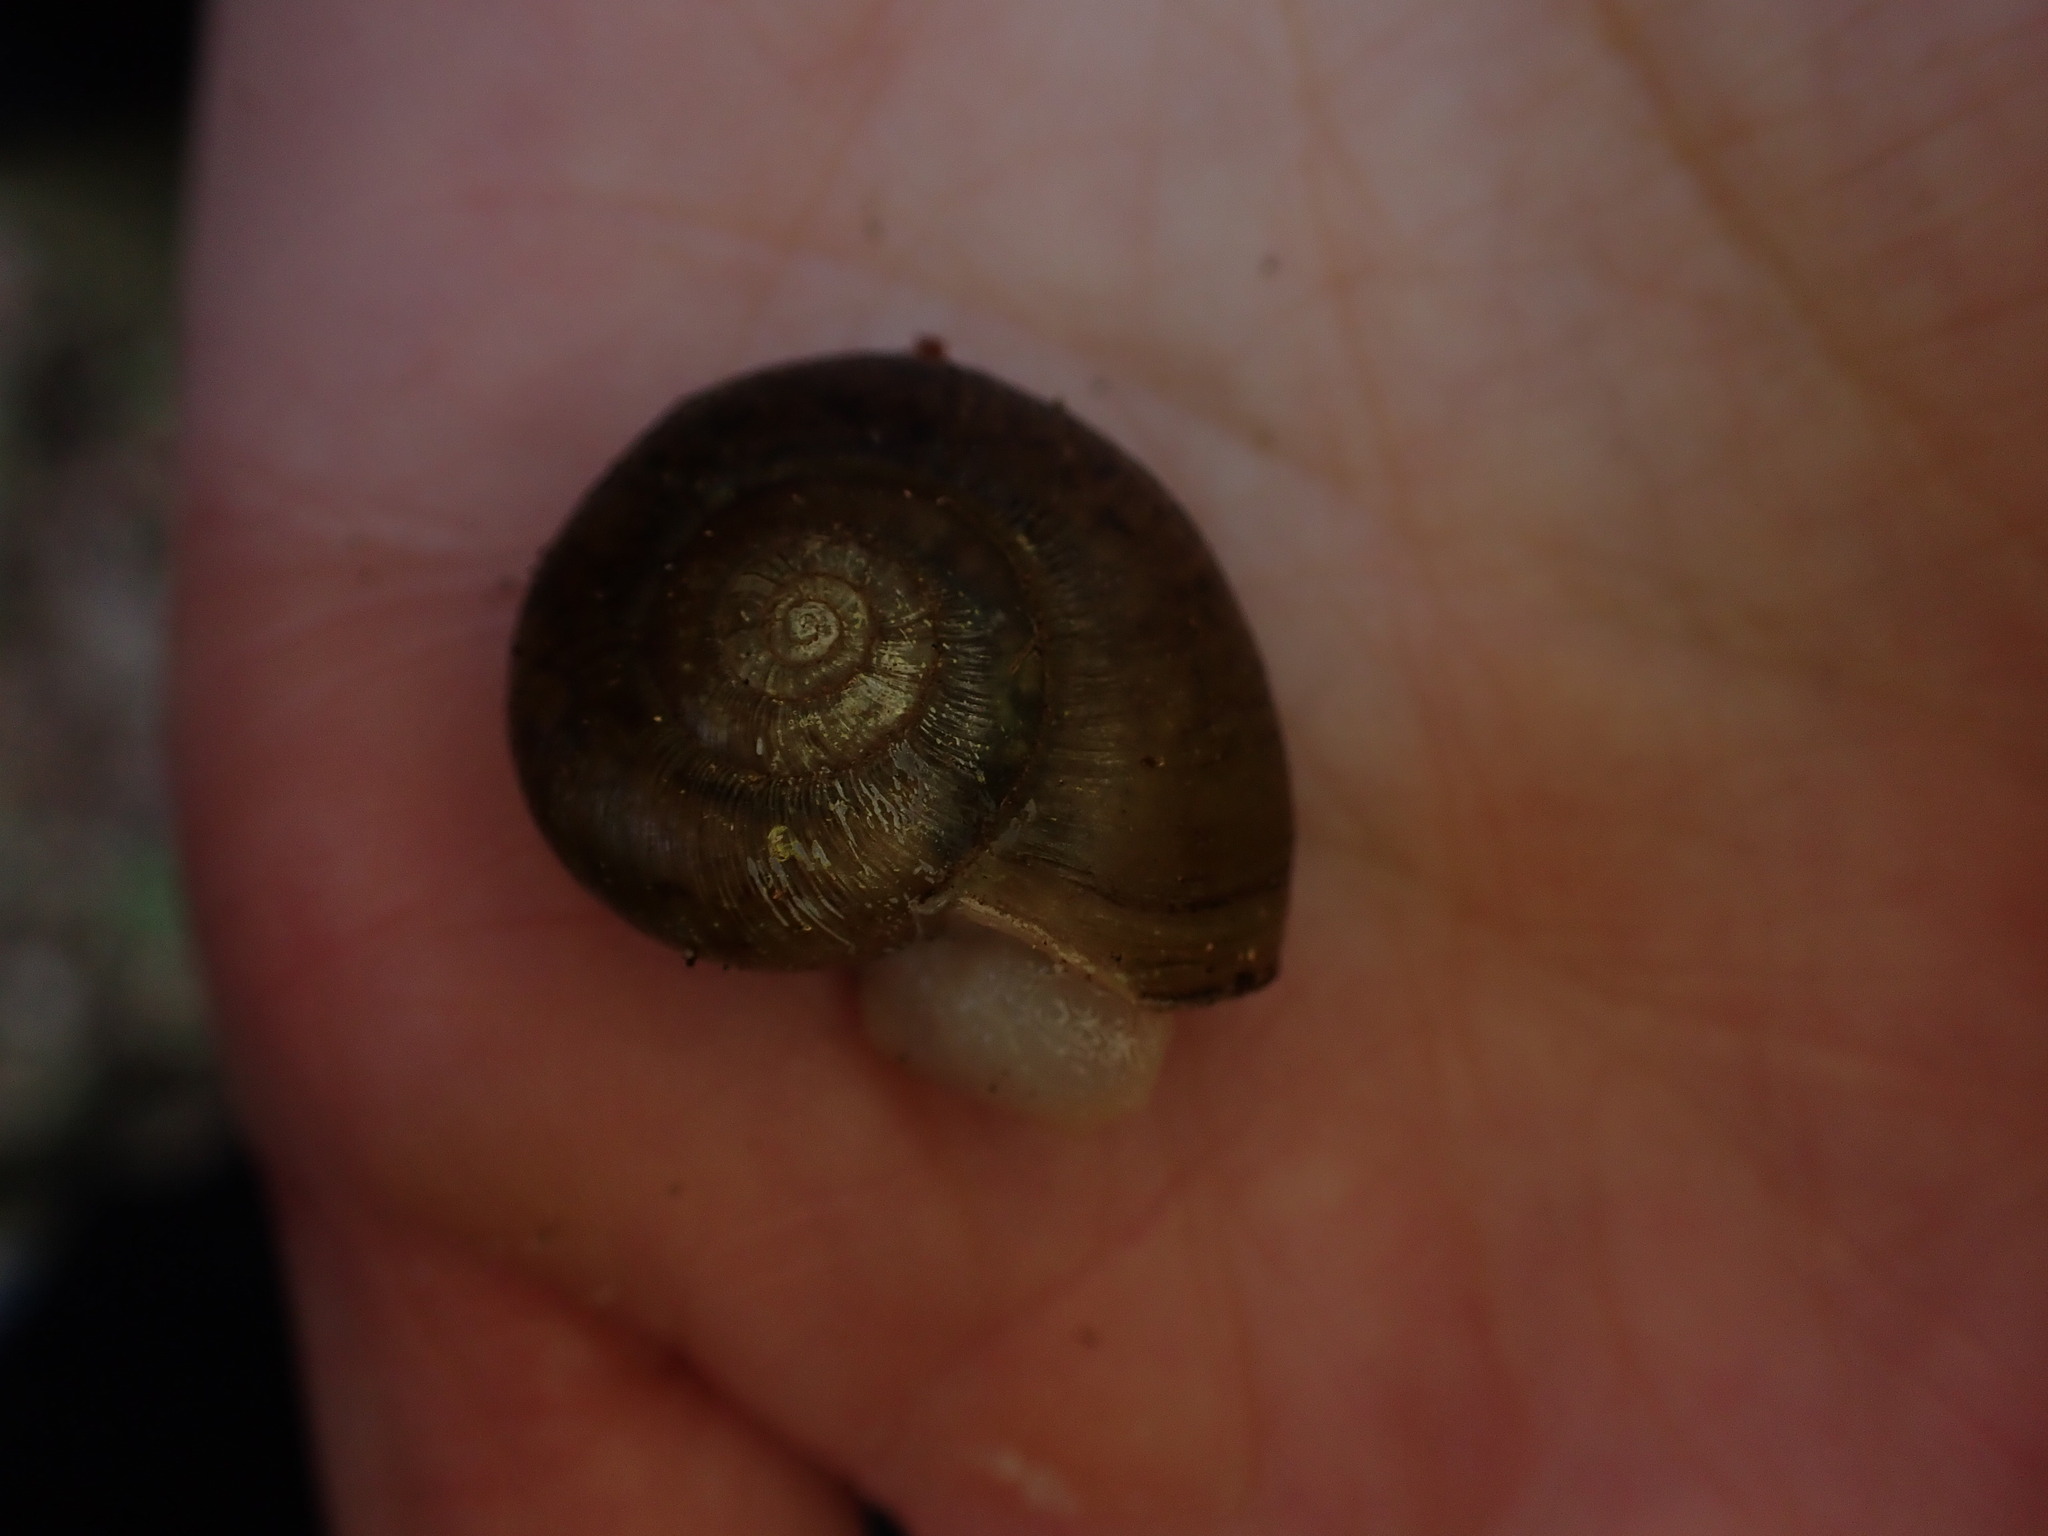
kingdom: Animalia
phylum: Mollusca
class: Gastropoda
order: Stylommatophora
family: Haplotrematidae
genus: Haplotrema
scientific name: Haplotrema vancouverense
